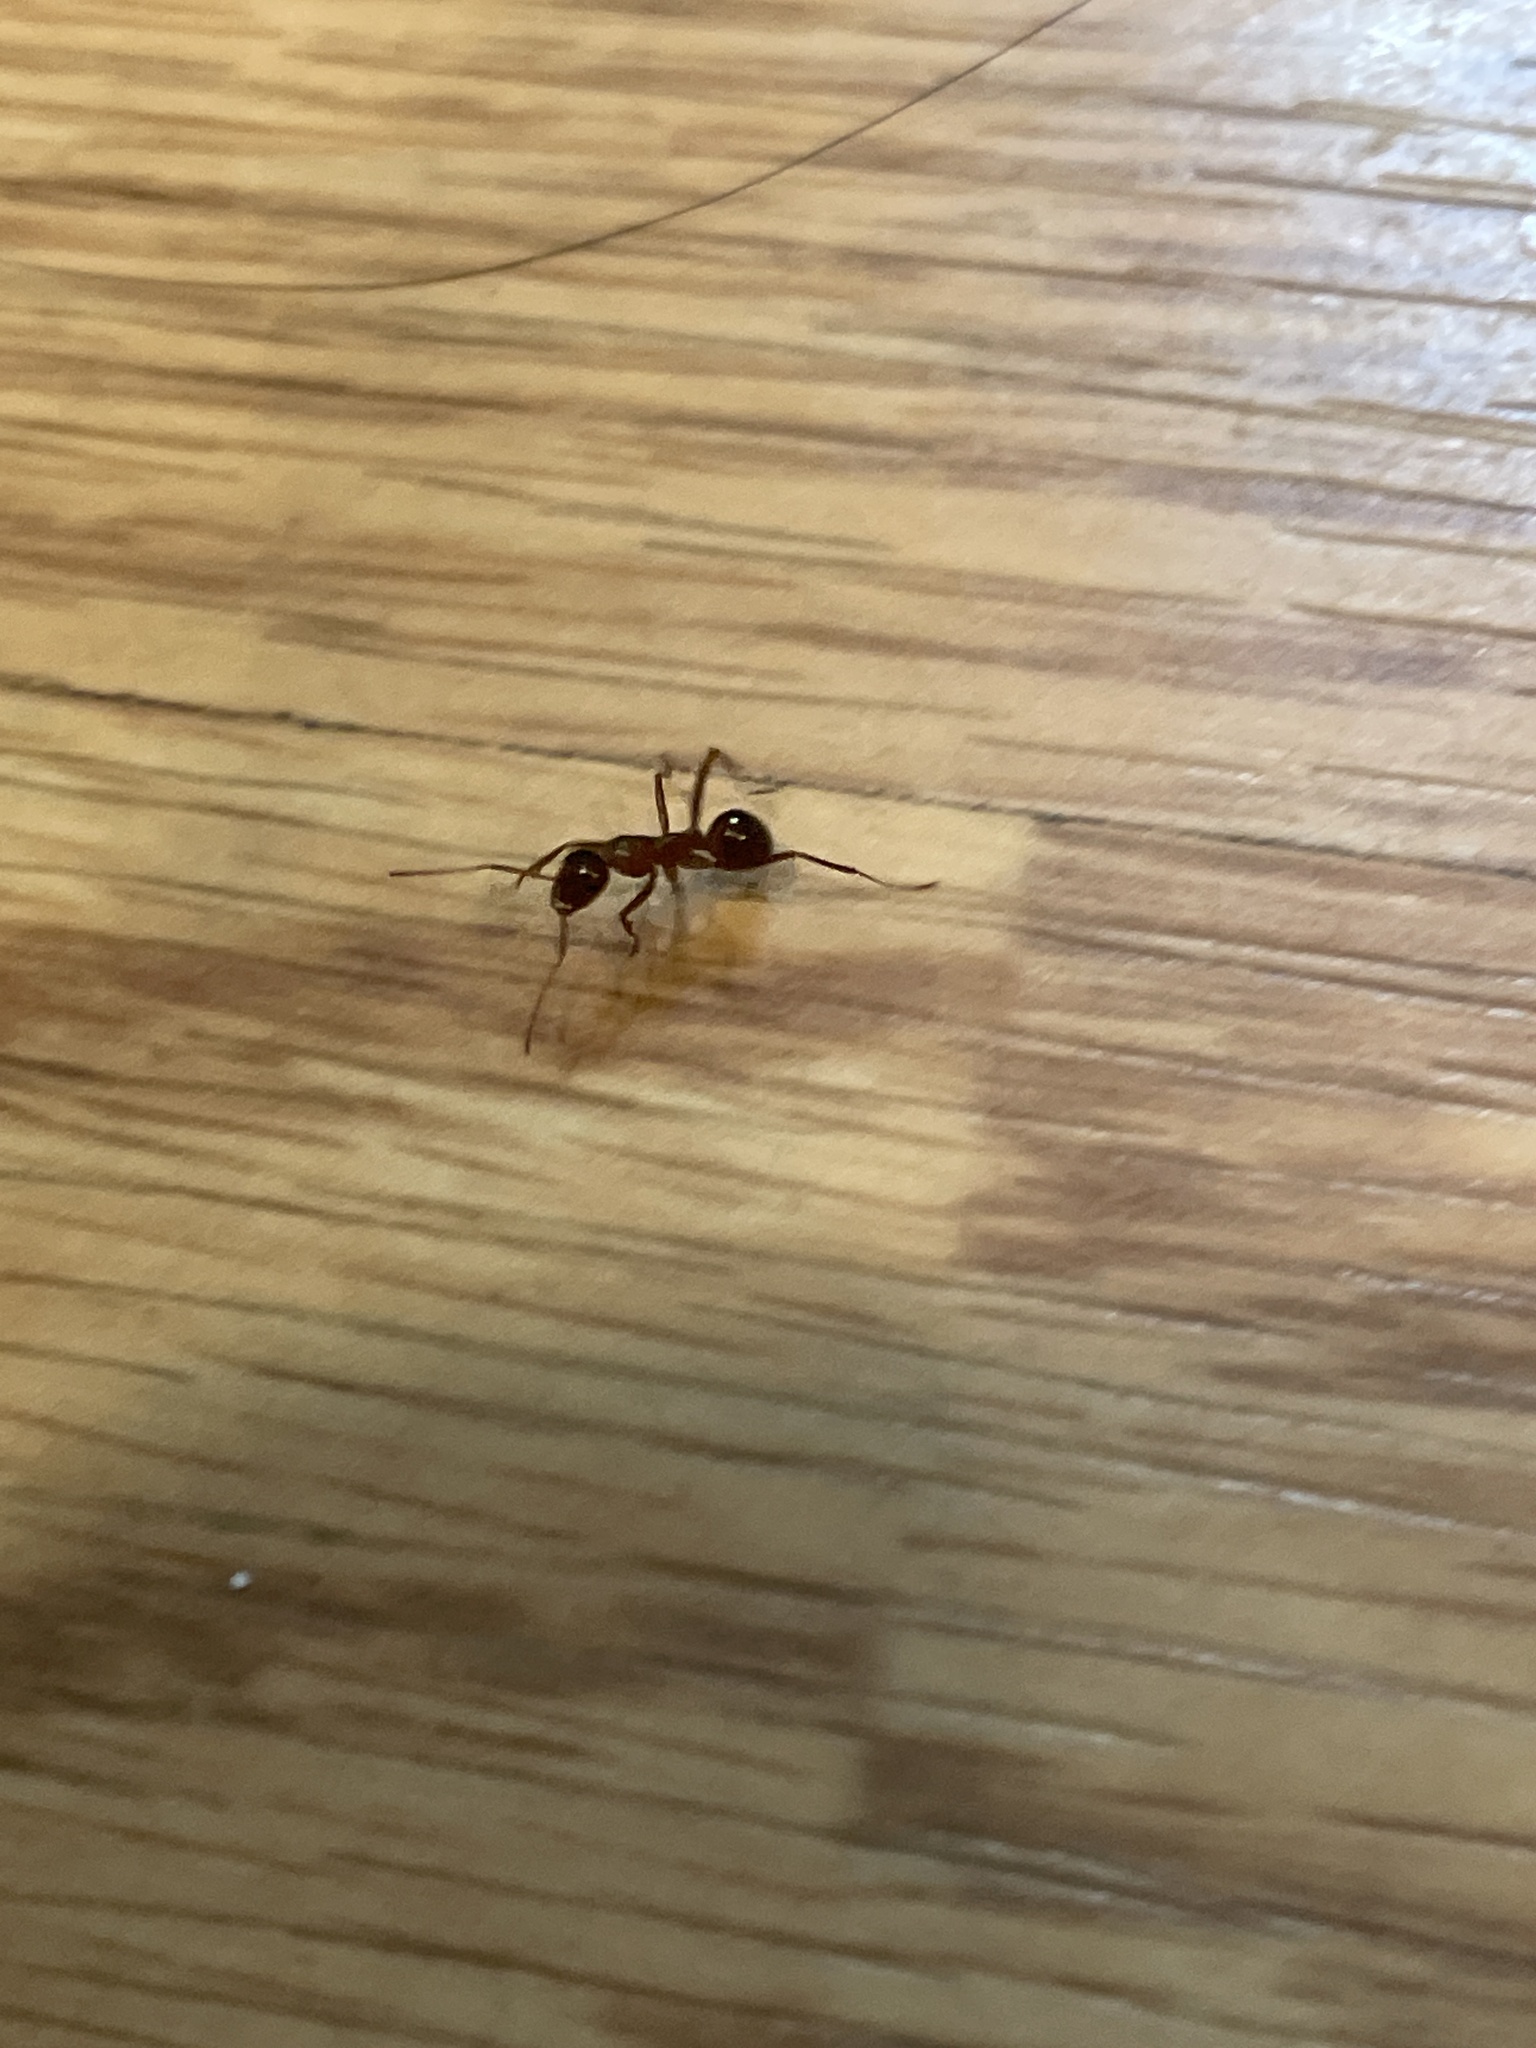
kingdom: Animalia
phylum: Arthropoda
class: Insecta
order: Hymenoptera
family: Formicidae
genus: Formica
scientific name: Formica
